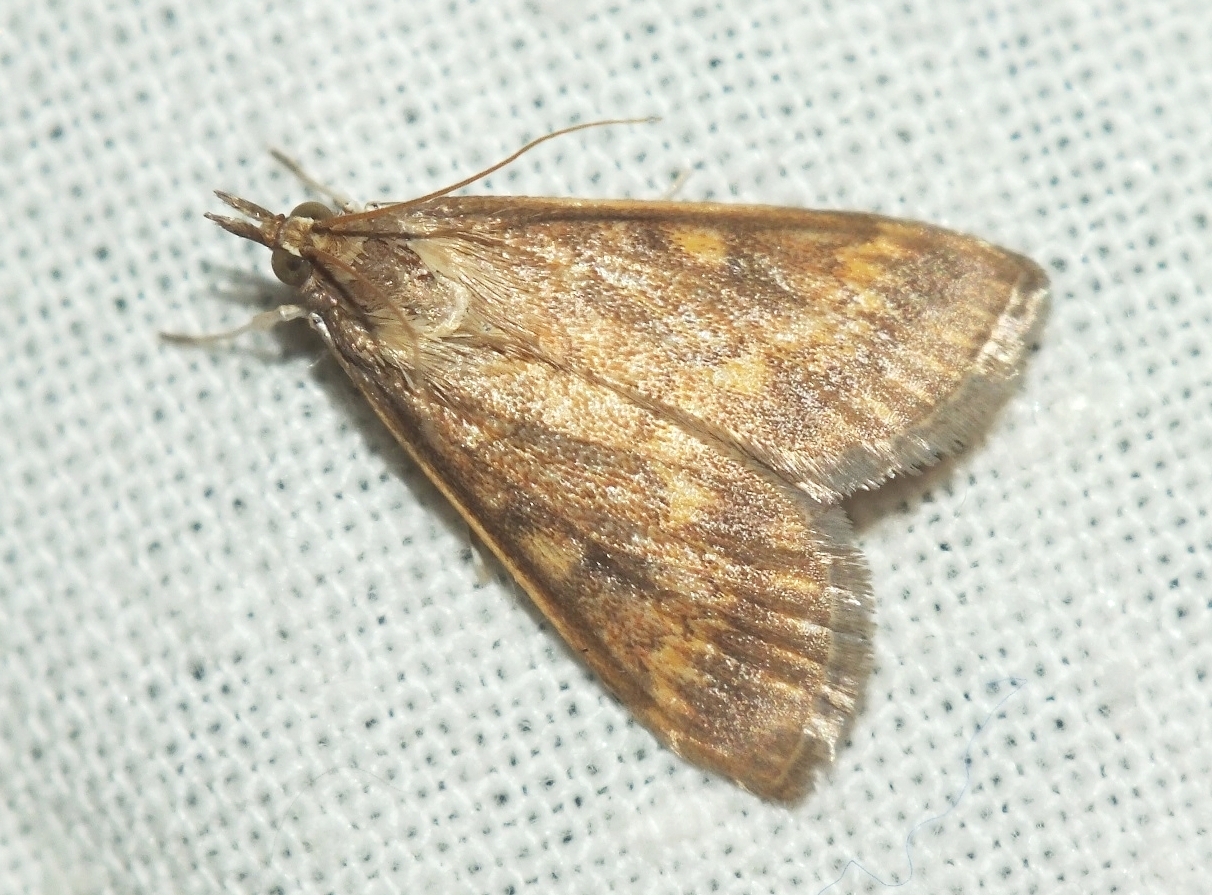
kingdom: Animalia
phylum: Arthropoda
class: Insecta
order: Lepidoptera
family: Crambidae
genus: Ostrinia
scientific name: Ostrinia nubilalis
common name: European corn borer
